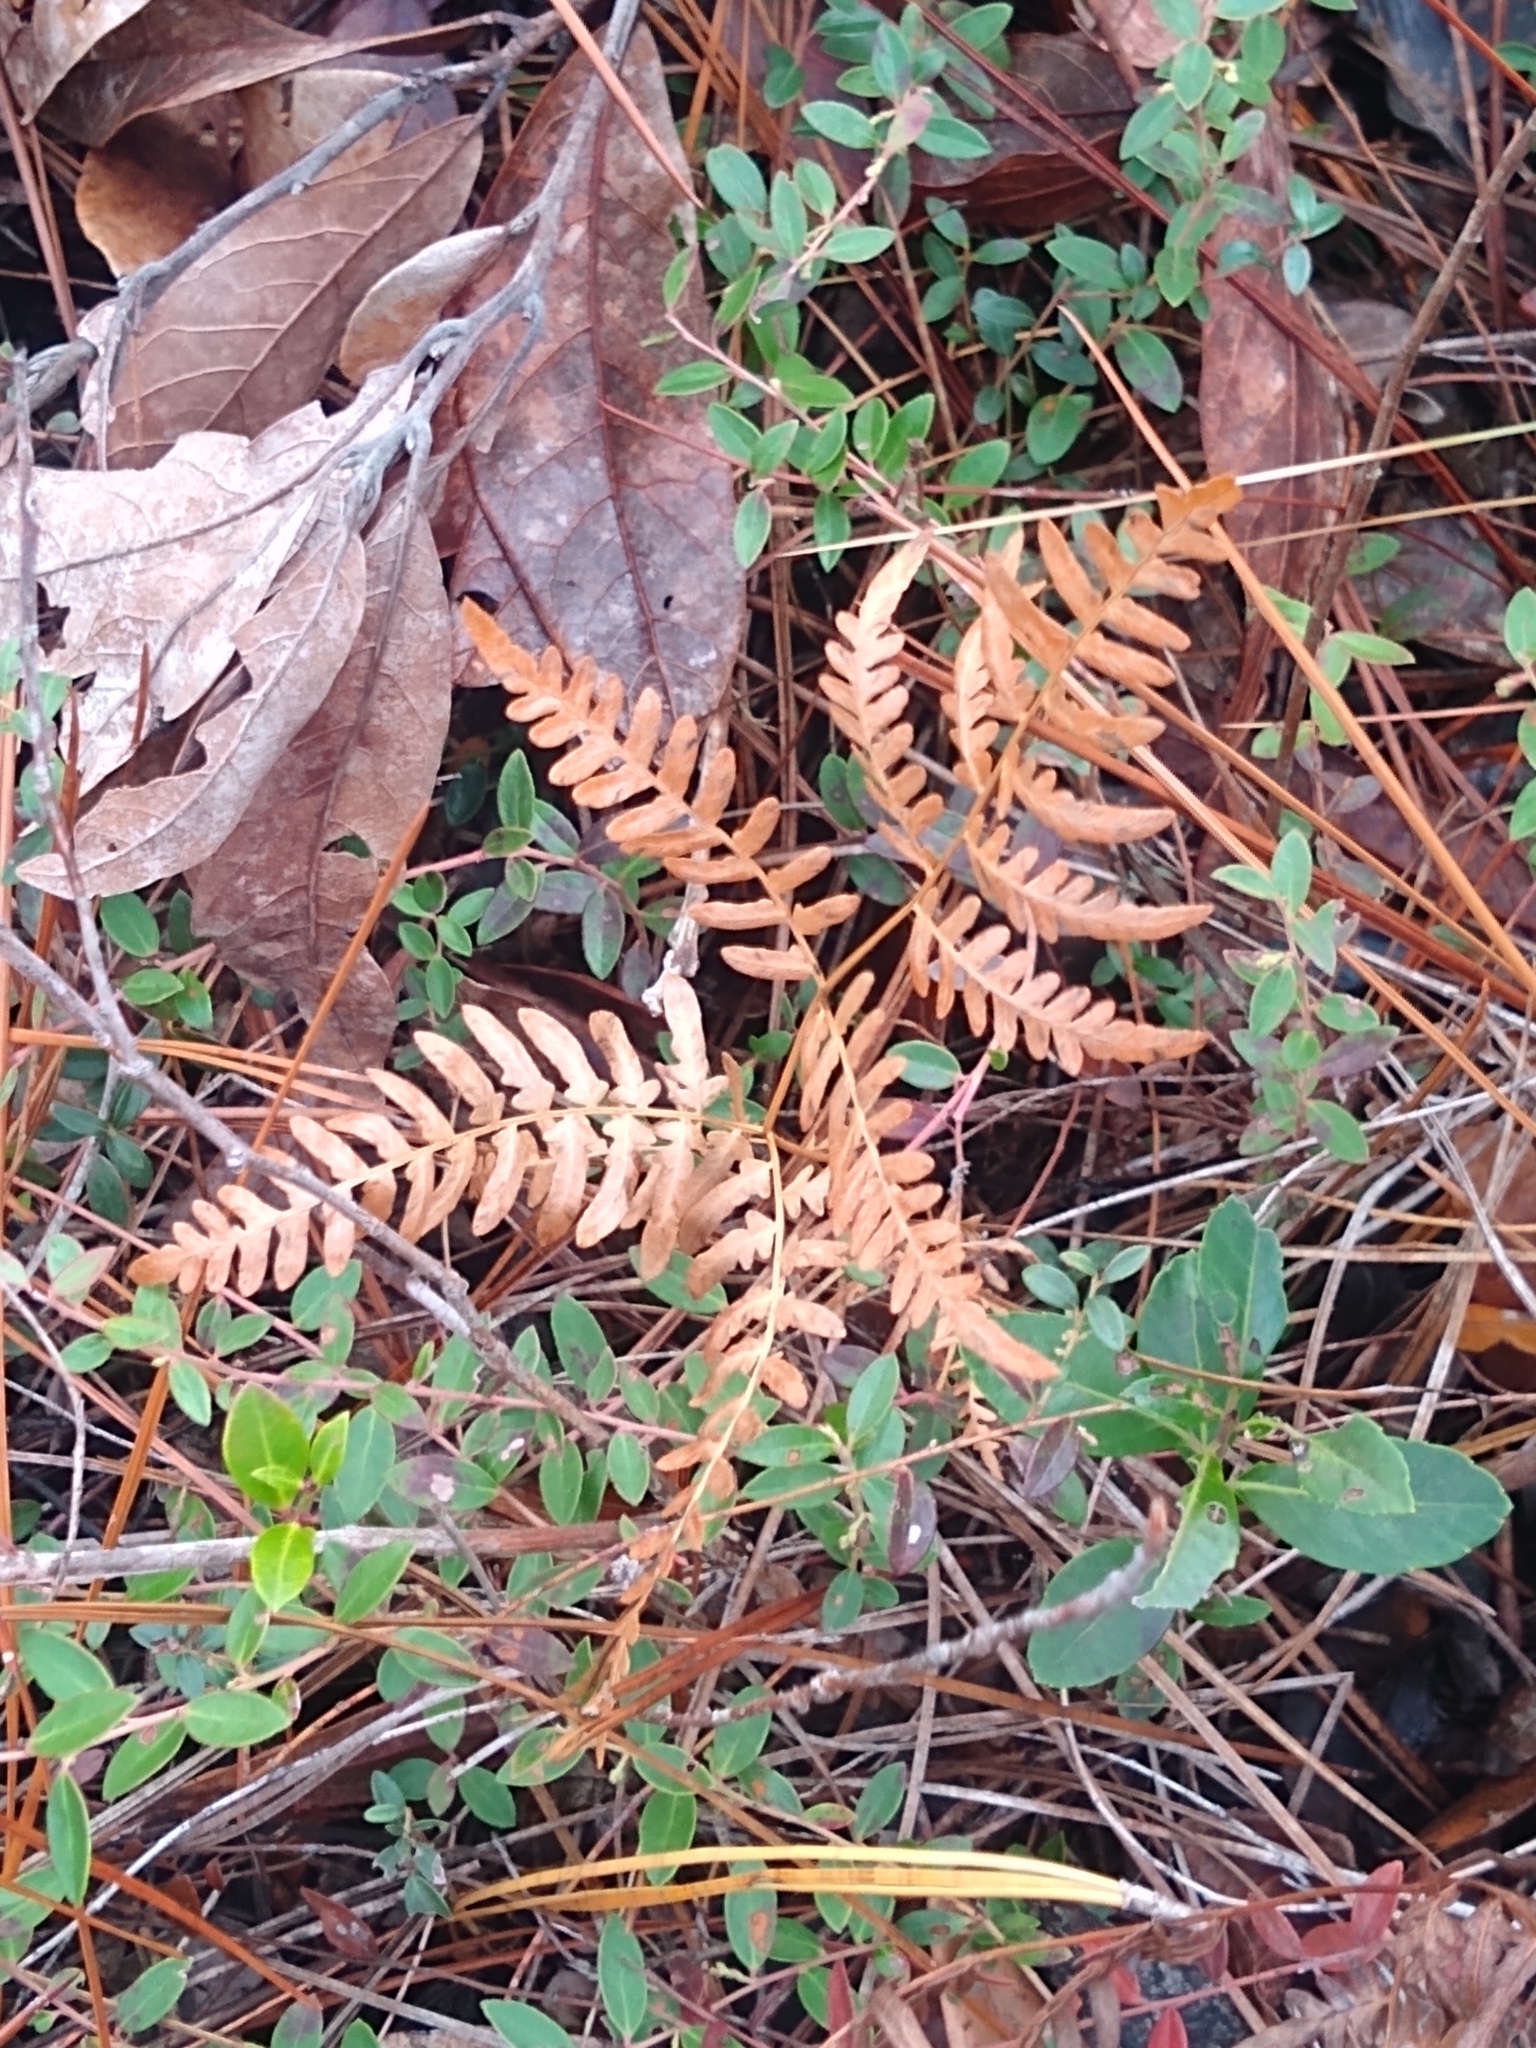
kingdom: Plantae
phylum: Tracheophyta
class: Polypodiopsida
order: Polypodiales
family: Dennstaedtiaceae
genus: Pteridium
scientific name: Pteridium
